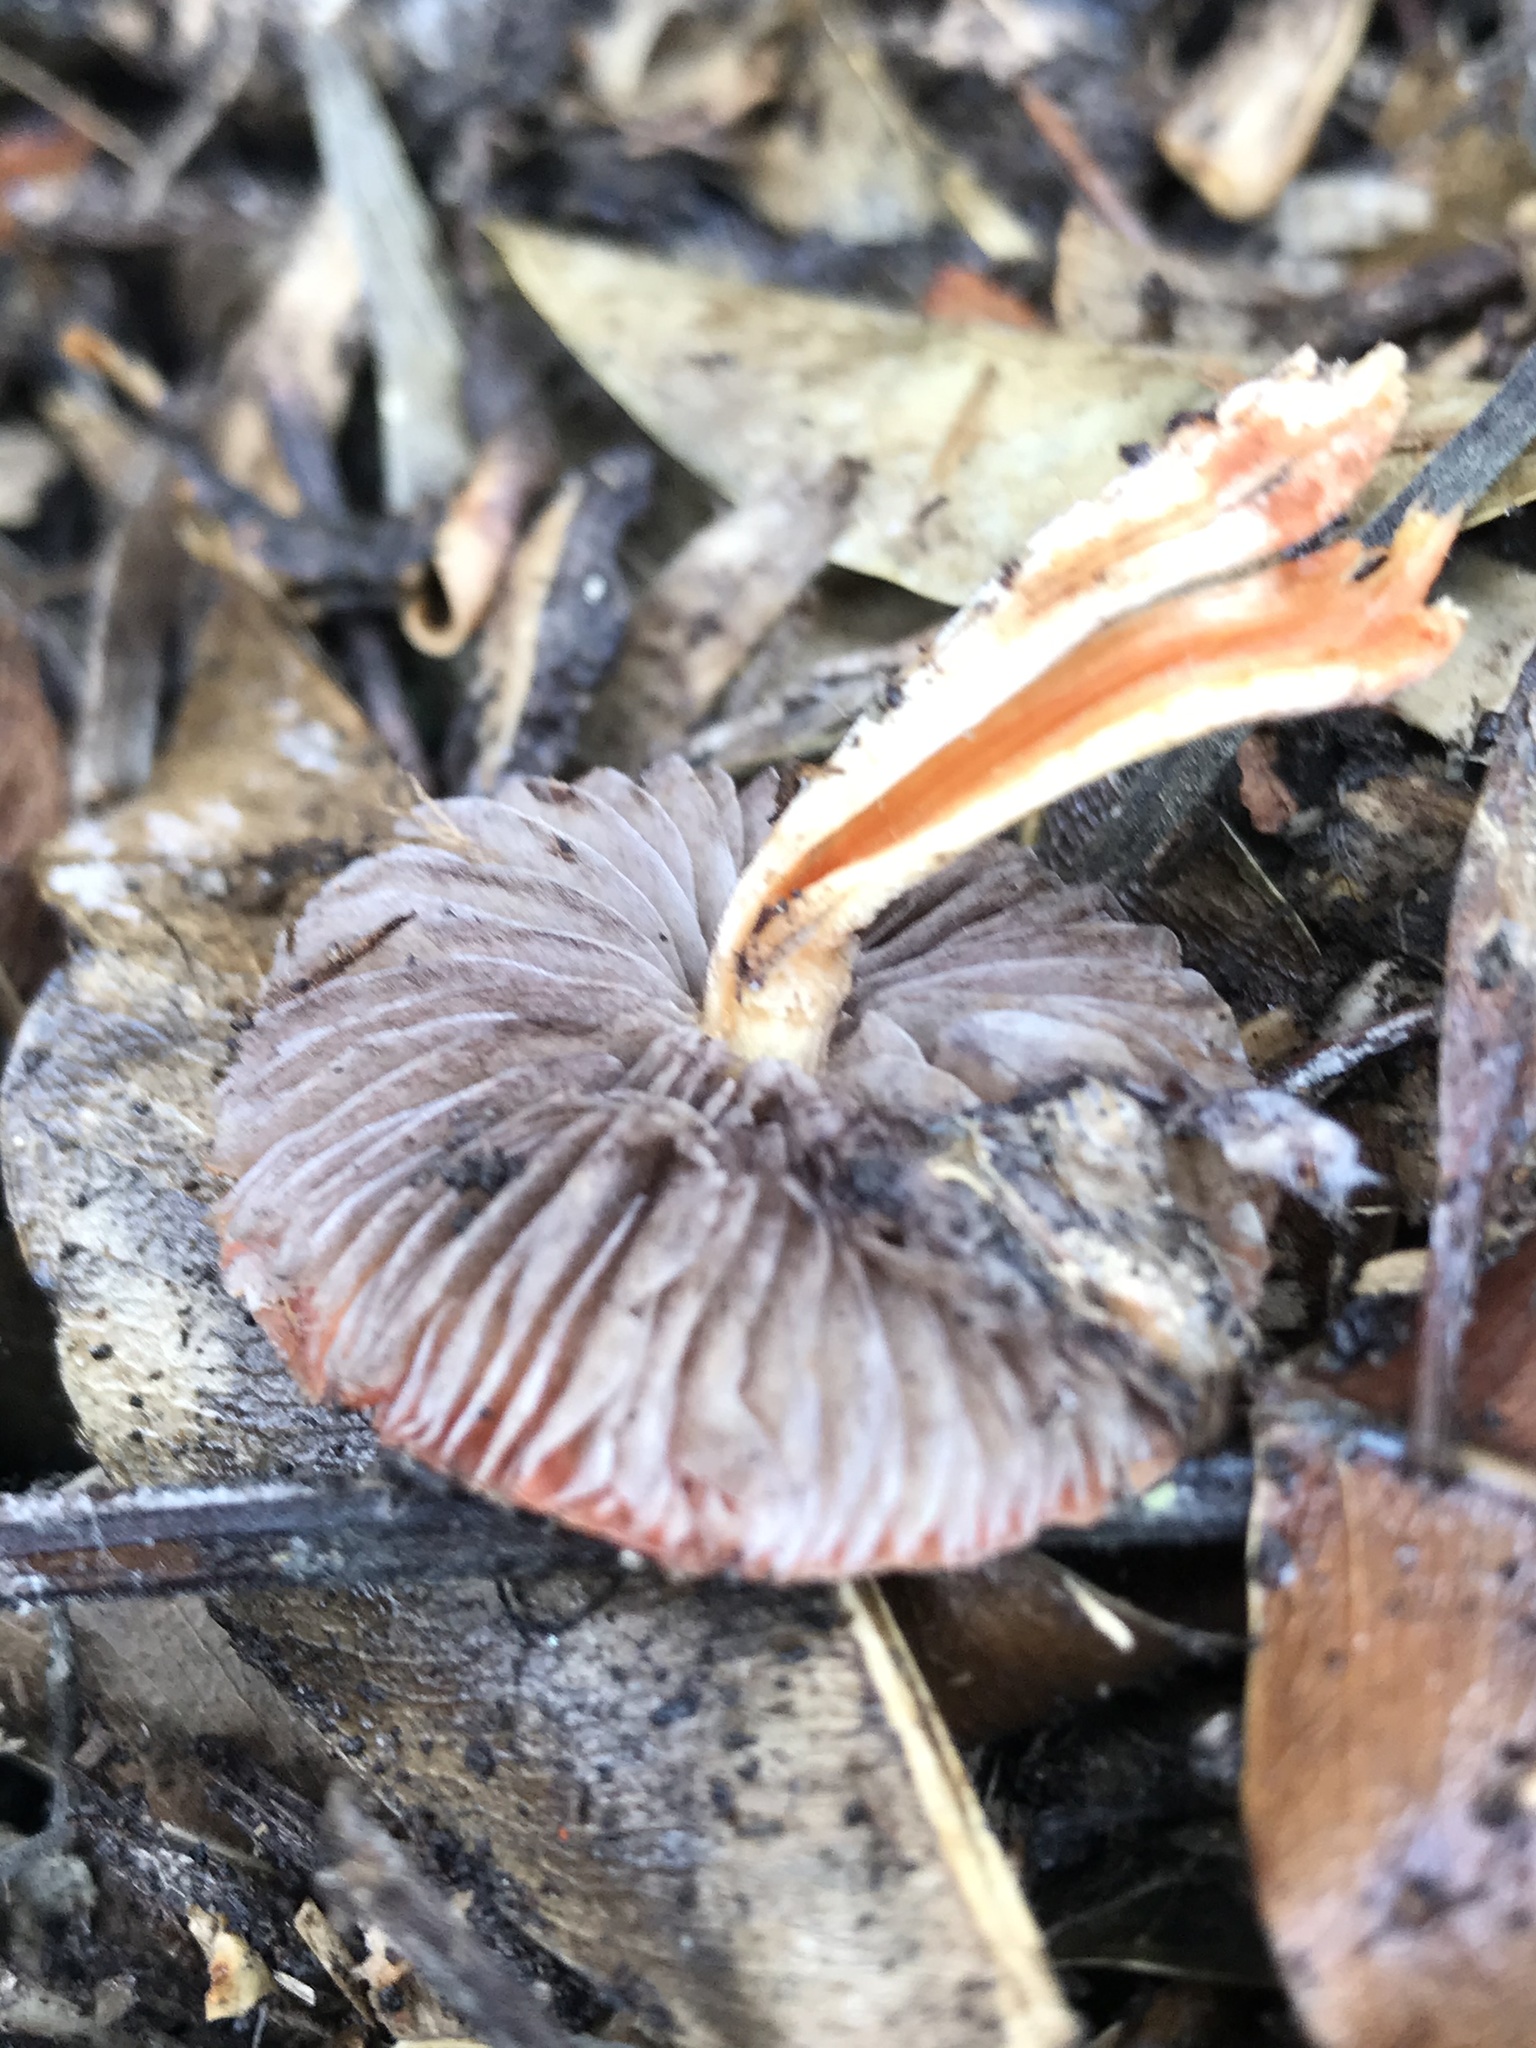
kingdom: Fungi
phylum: Basidiomycota
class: Agaricomycetes
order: Agaricales
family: Strophariaceae
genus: Leratiomyces
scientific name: Leratiomyces ceres
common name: Redlead roundhead
